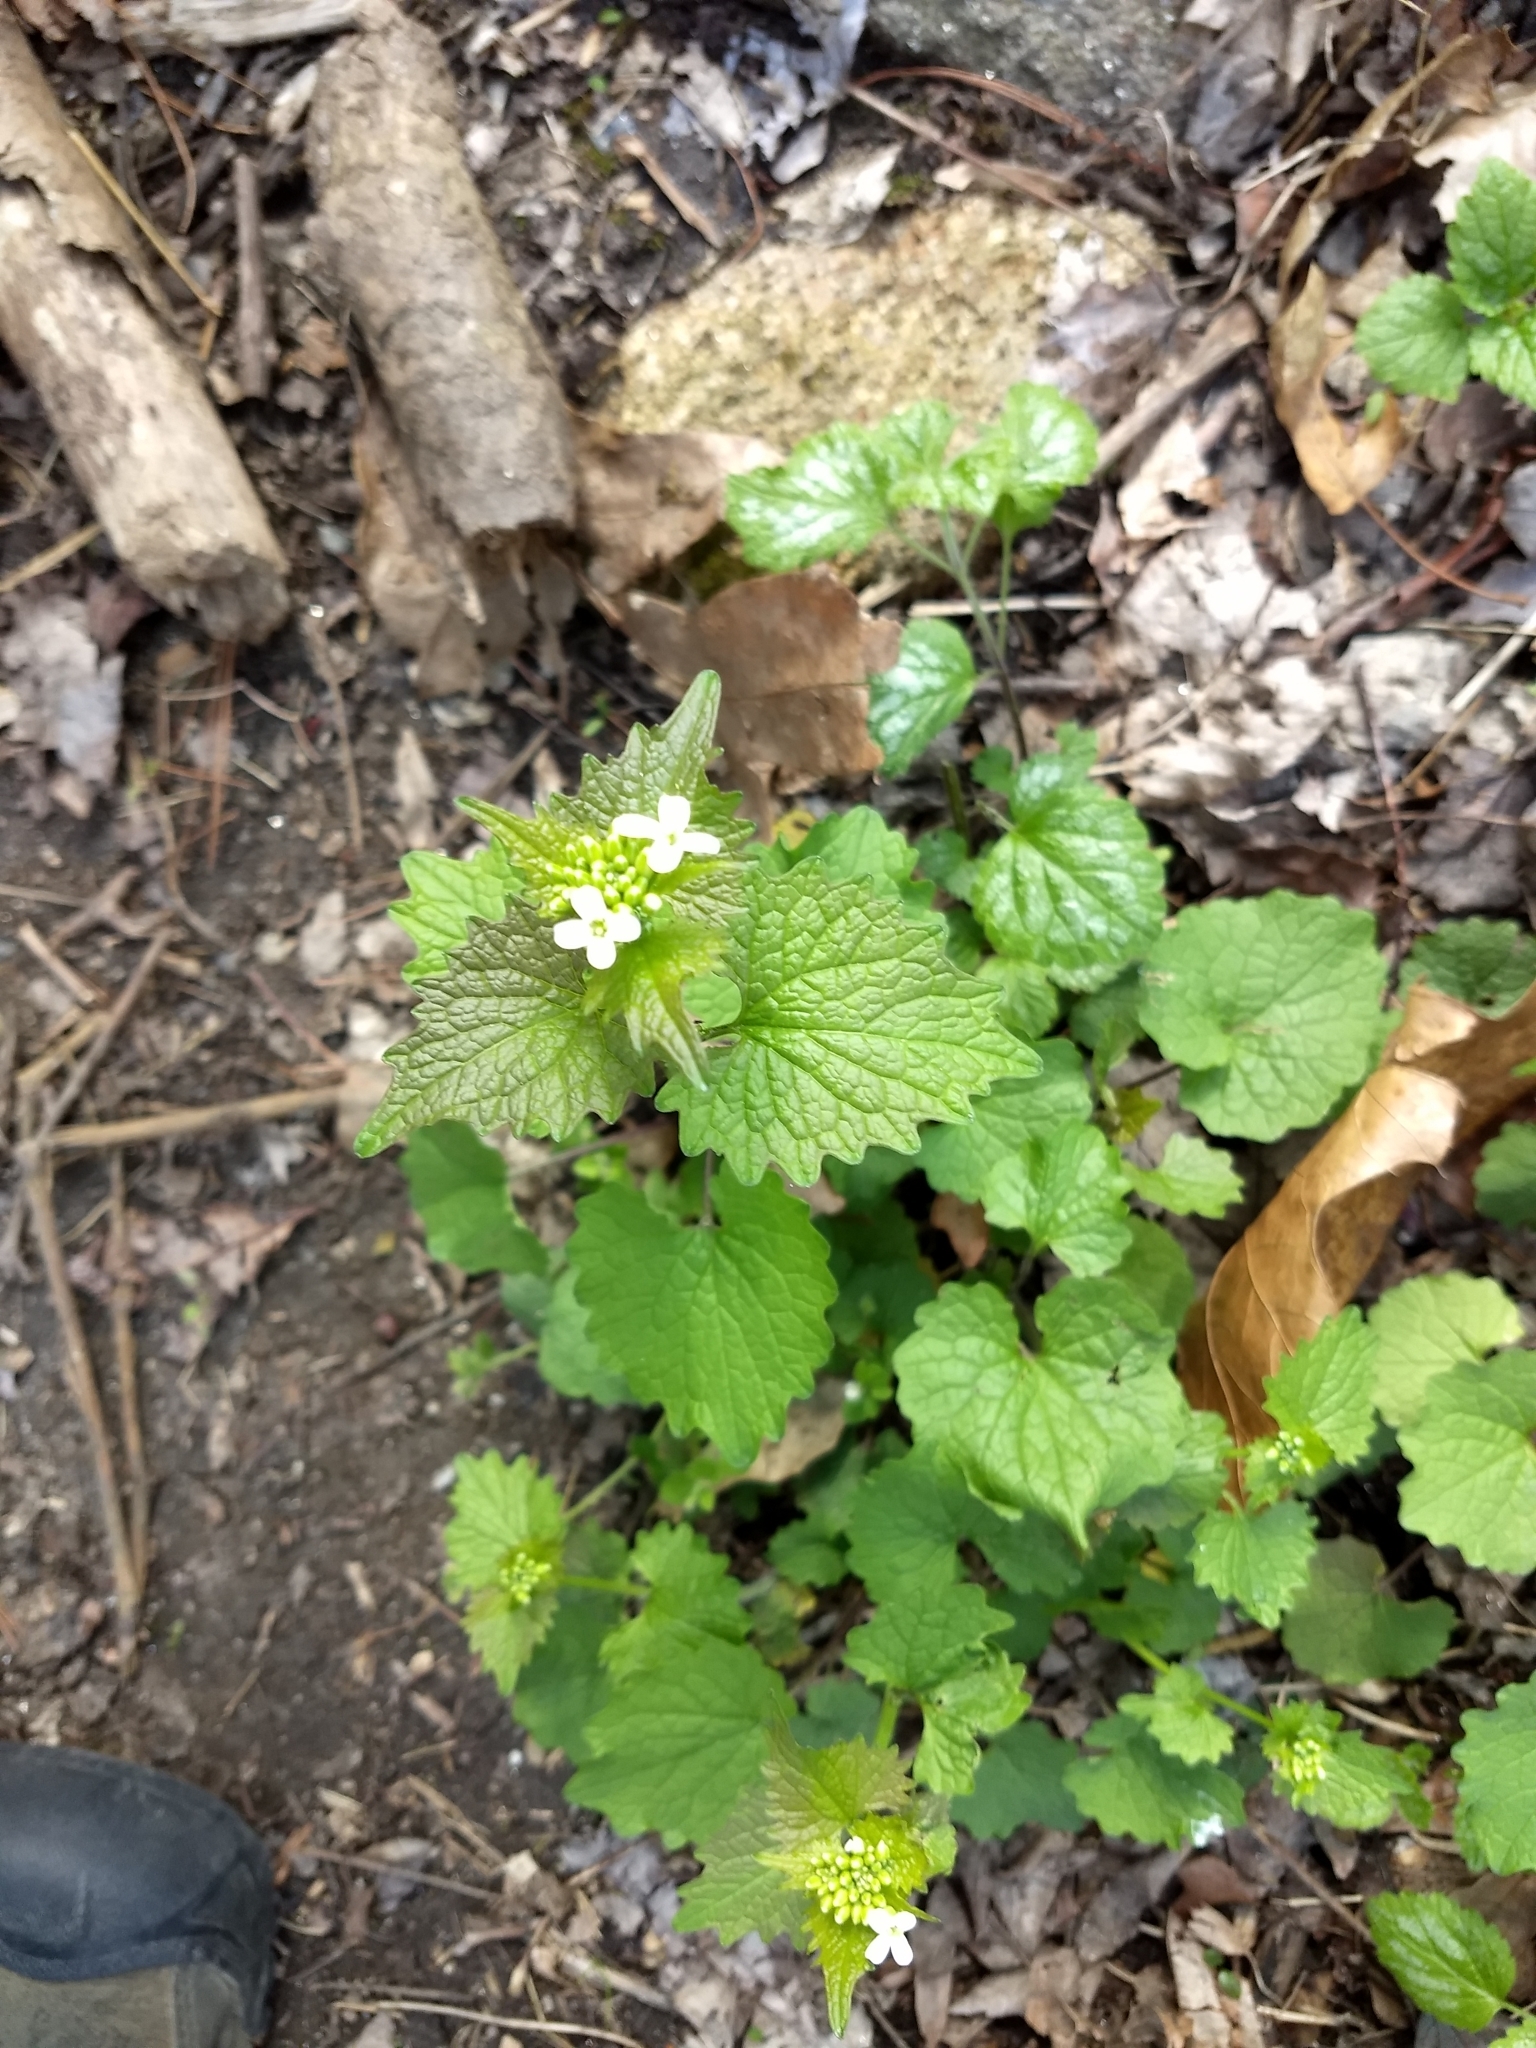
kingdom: Plantae
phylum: Tracheophyta
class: Magnoliopsida
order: Brassicales
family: Brassicaceae
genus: Alliaria
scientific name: Alliaria petiolata
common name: Garlic mustard
